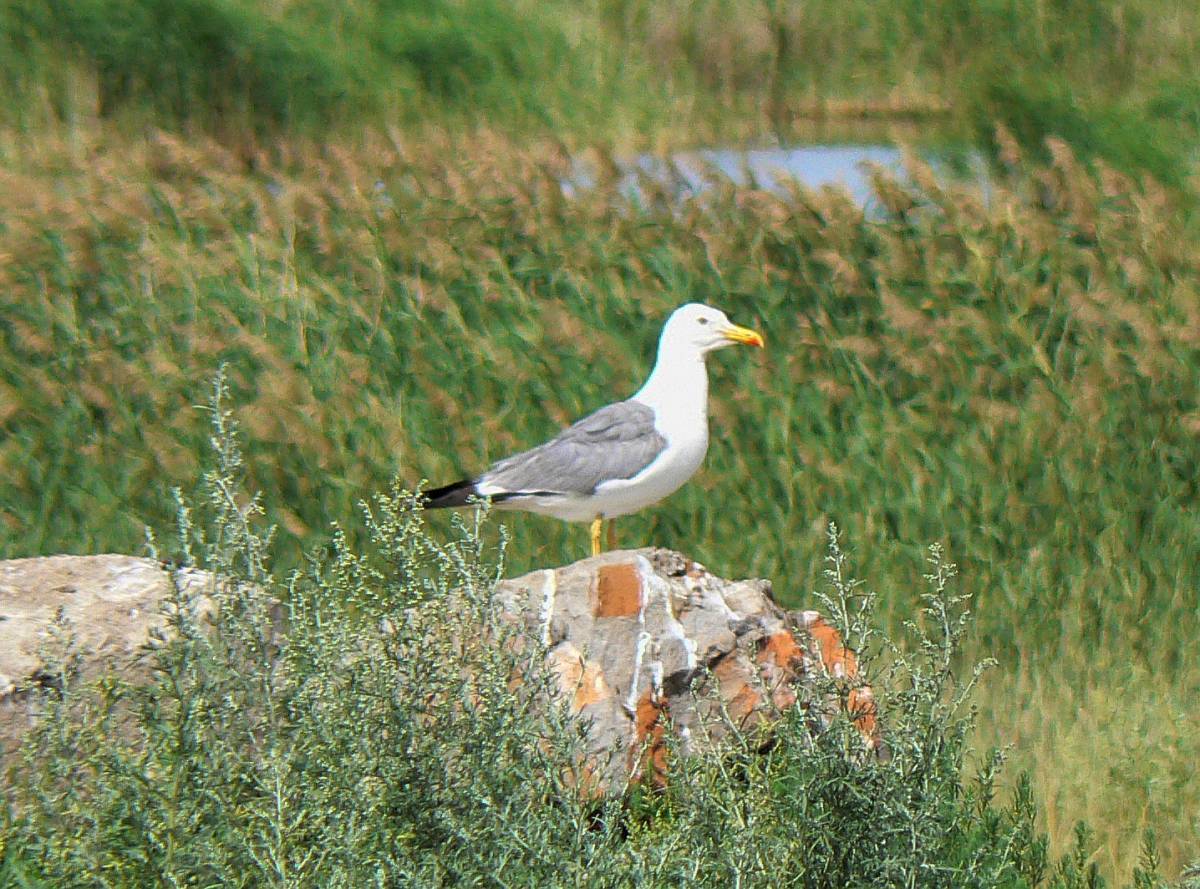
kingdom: Animalia
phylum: Chordata
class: Aves
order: Charadriiformes
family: Laridae
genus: Larus
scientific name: Larus fuscus
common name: Lesser black-backed gull
